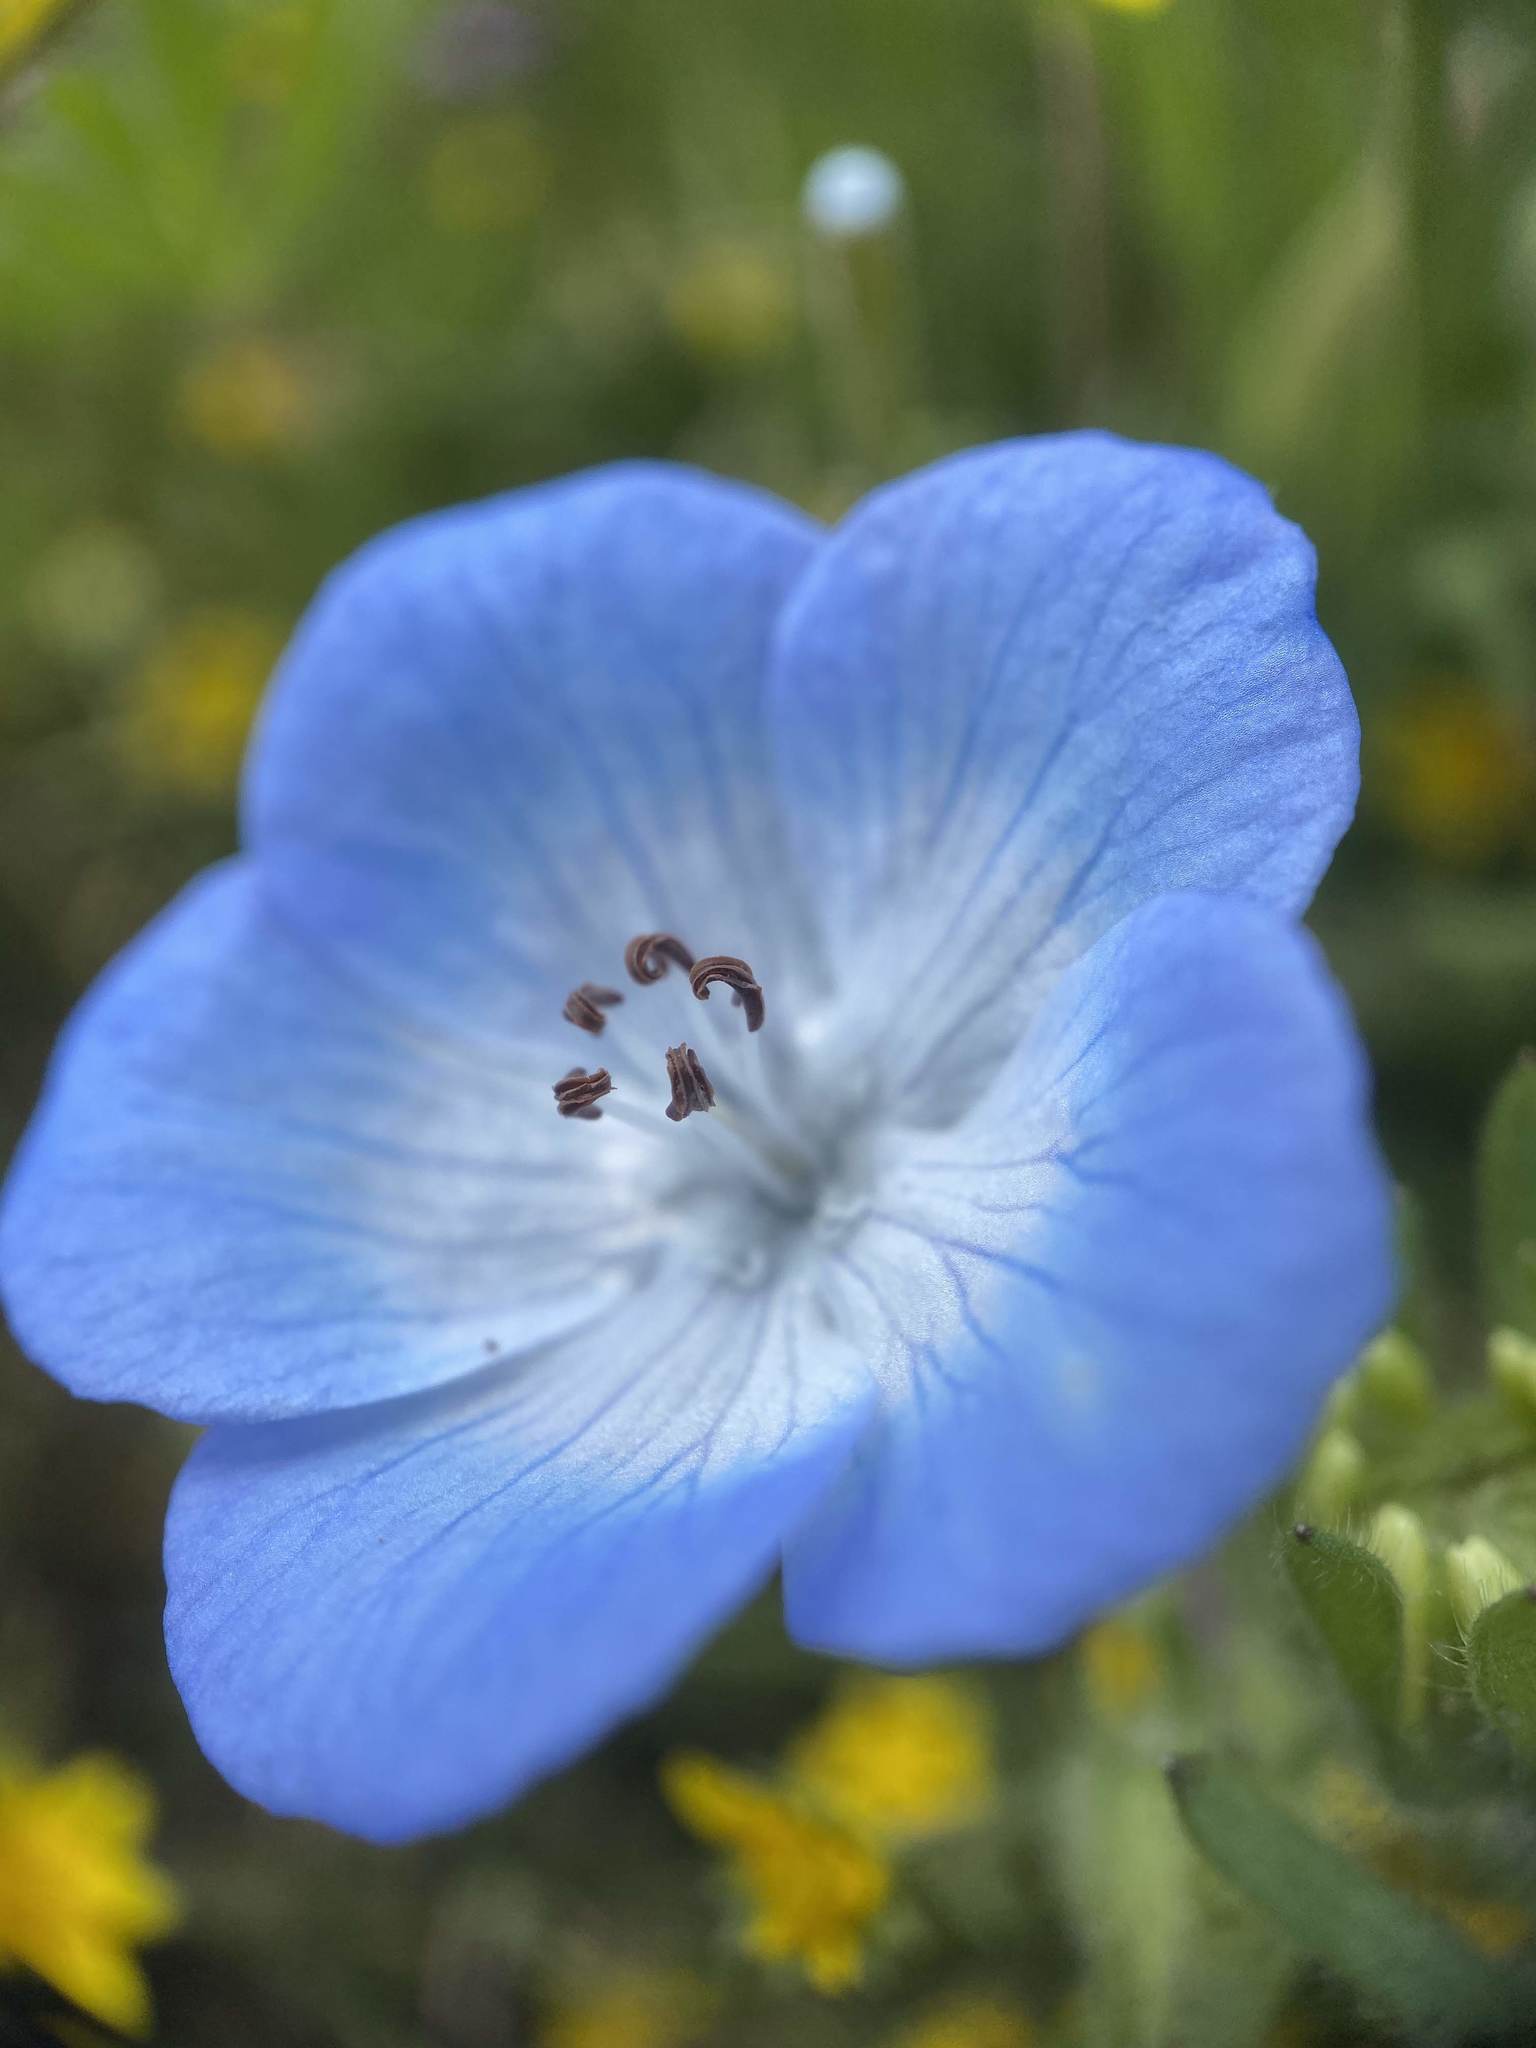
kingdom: Plantae
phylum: Tracheophyta
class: Magnoliopsida
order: Boraginales
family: Hydrophyllaceae
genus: Nemophila
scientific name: Nemophila menziesii
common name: Baby's-blue-eyes
